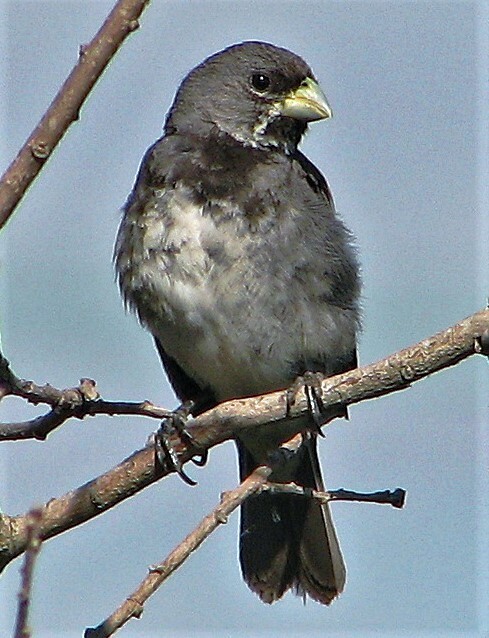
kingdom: Animalia
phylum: Chordata
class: Aves
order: Passeriformes
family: Thraupidae
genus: Sporophila
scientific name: Sporophila caerulescens
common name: Double-collared seedeater
